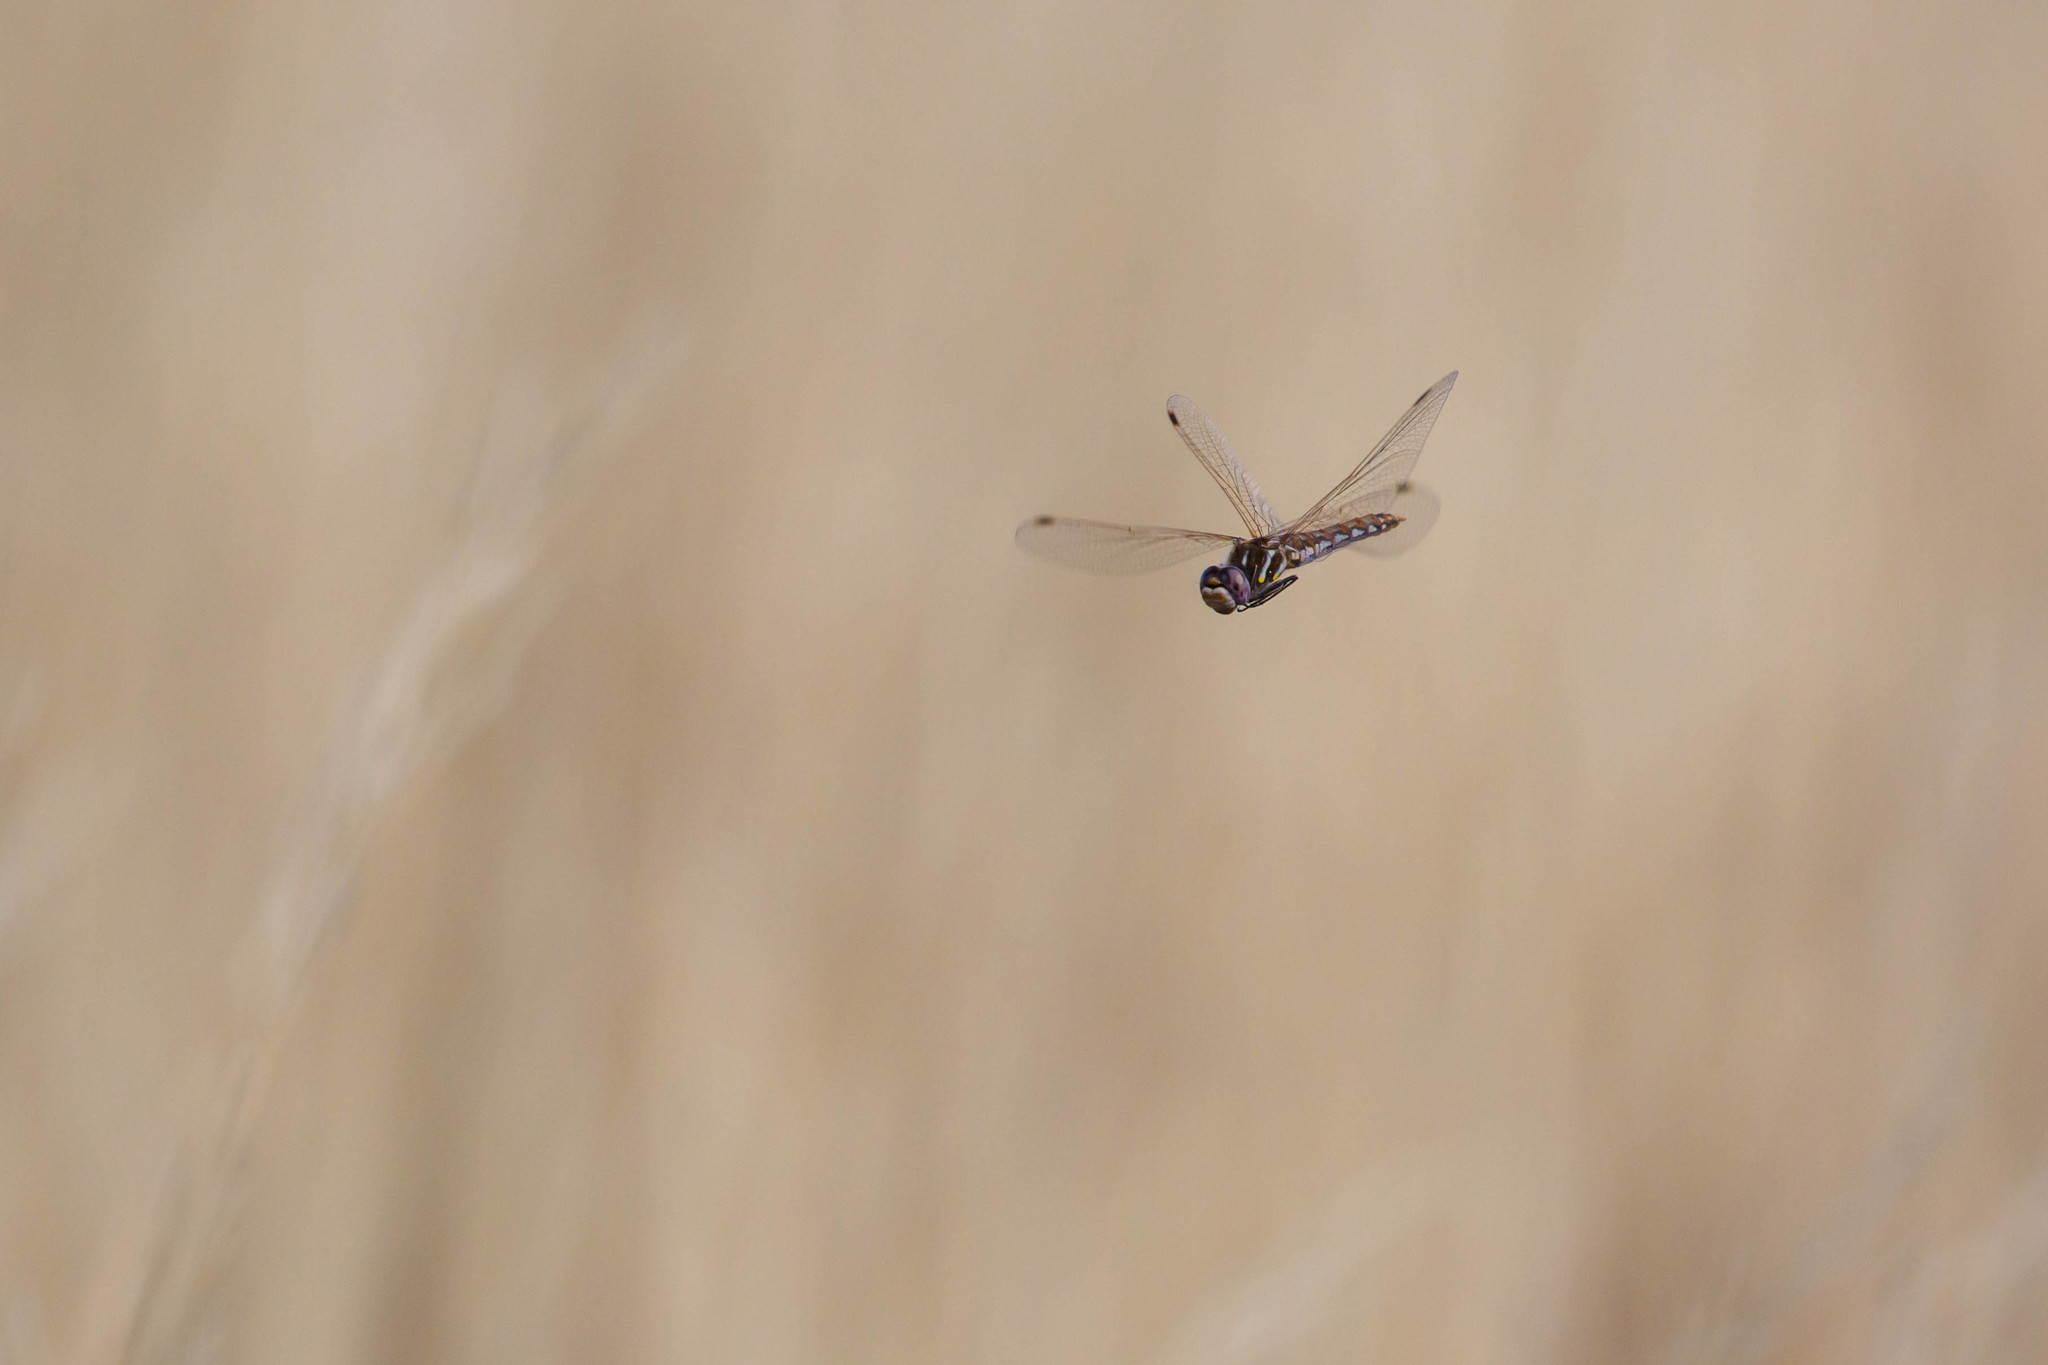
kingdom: Animalia
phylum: Arthropoda
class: Insecta
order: Odonata
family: Libellulidae
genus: Sympetrum
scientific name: Sympetrum corruptum
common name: Variegated meadowhawk
